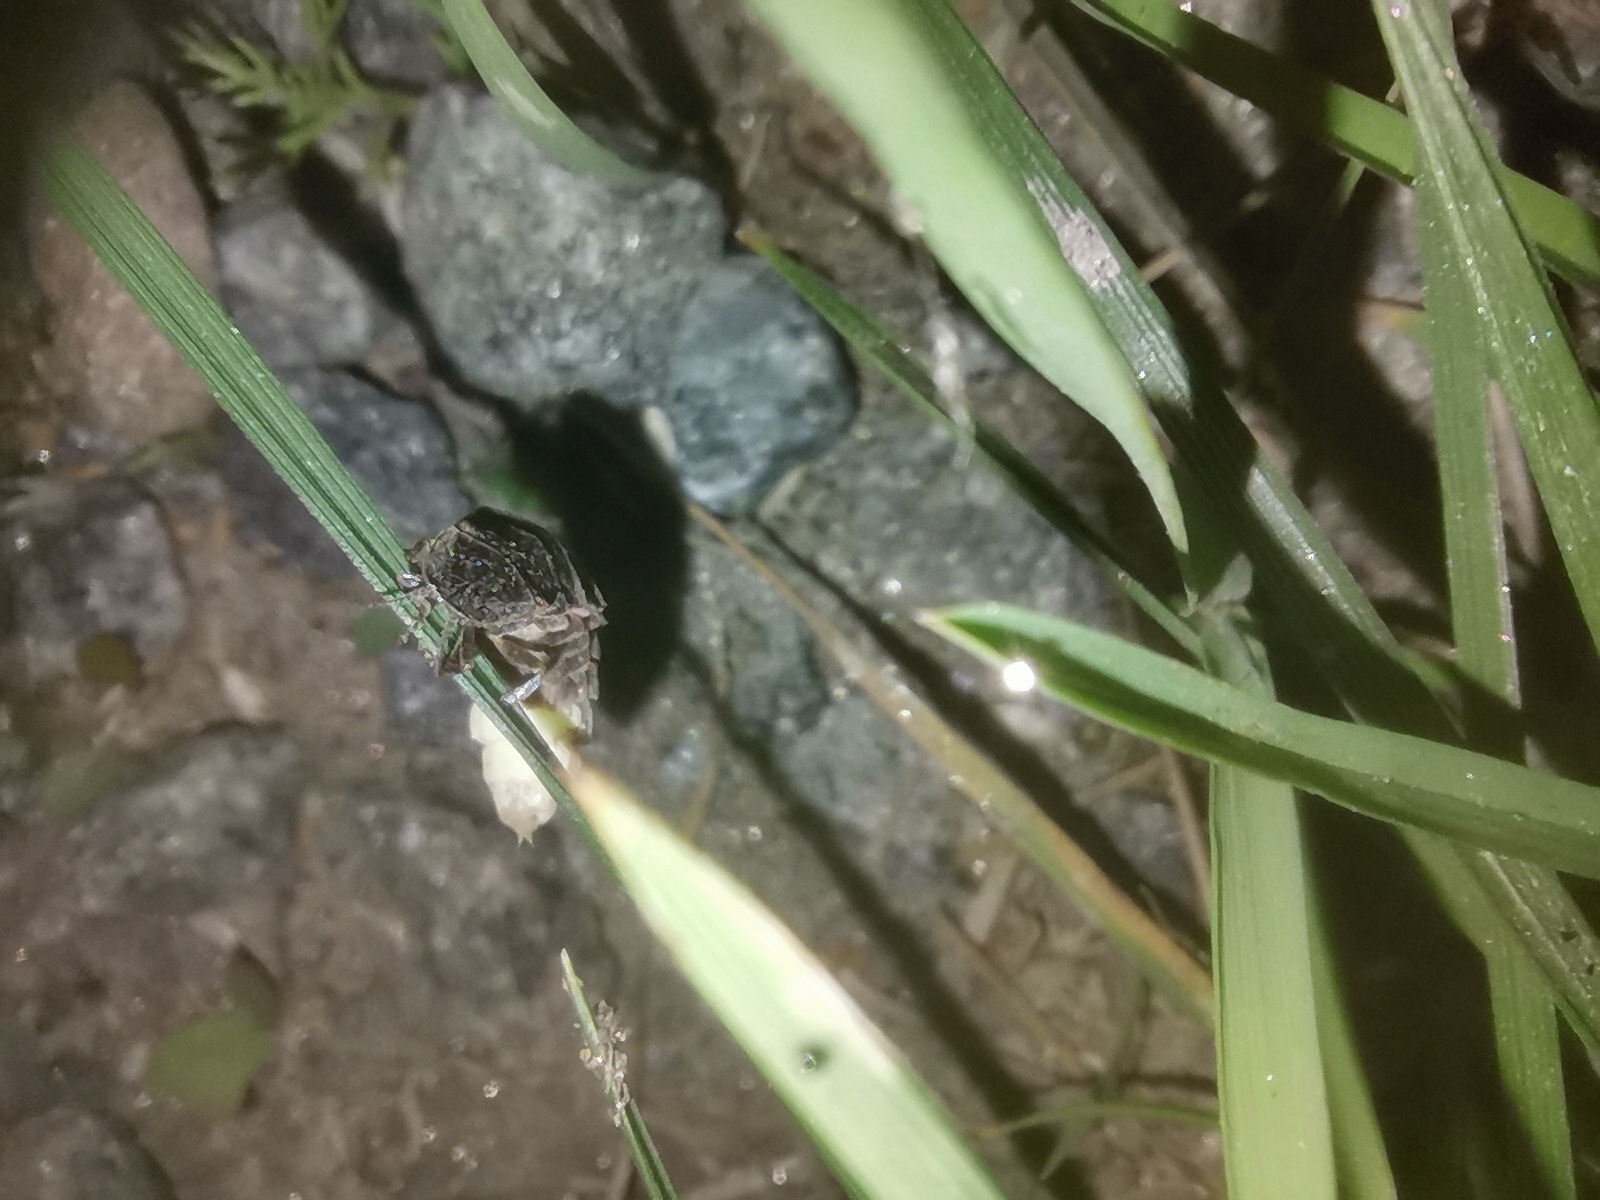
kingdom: Animalia
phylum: Arthropoda
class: Insecta
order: Coleoptera
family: Lampyridae
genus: Lampyris
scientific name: Lampyris noctiluca
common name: Glow-worm
